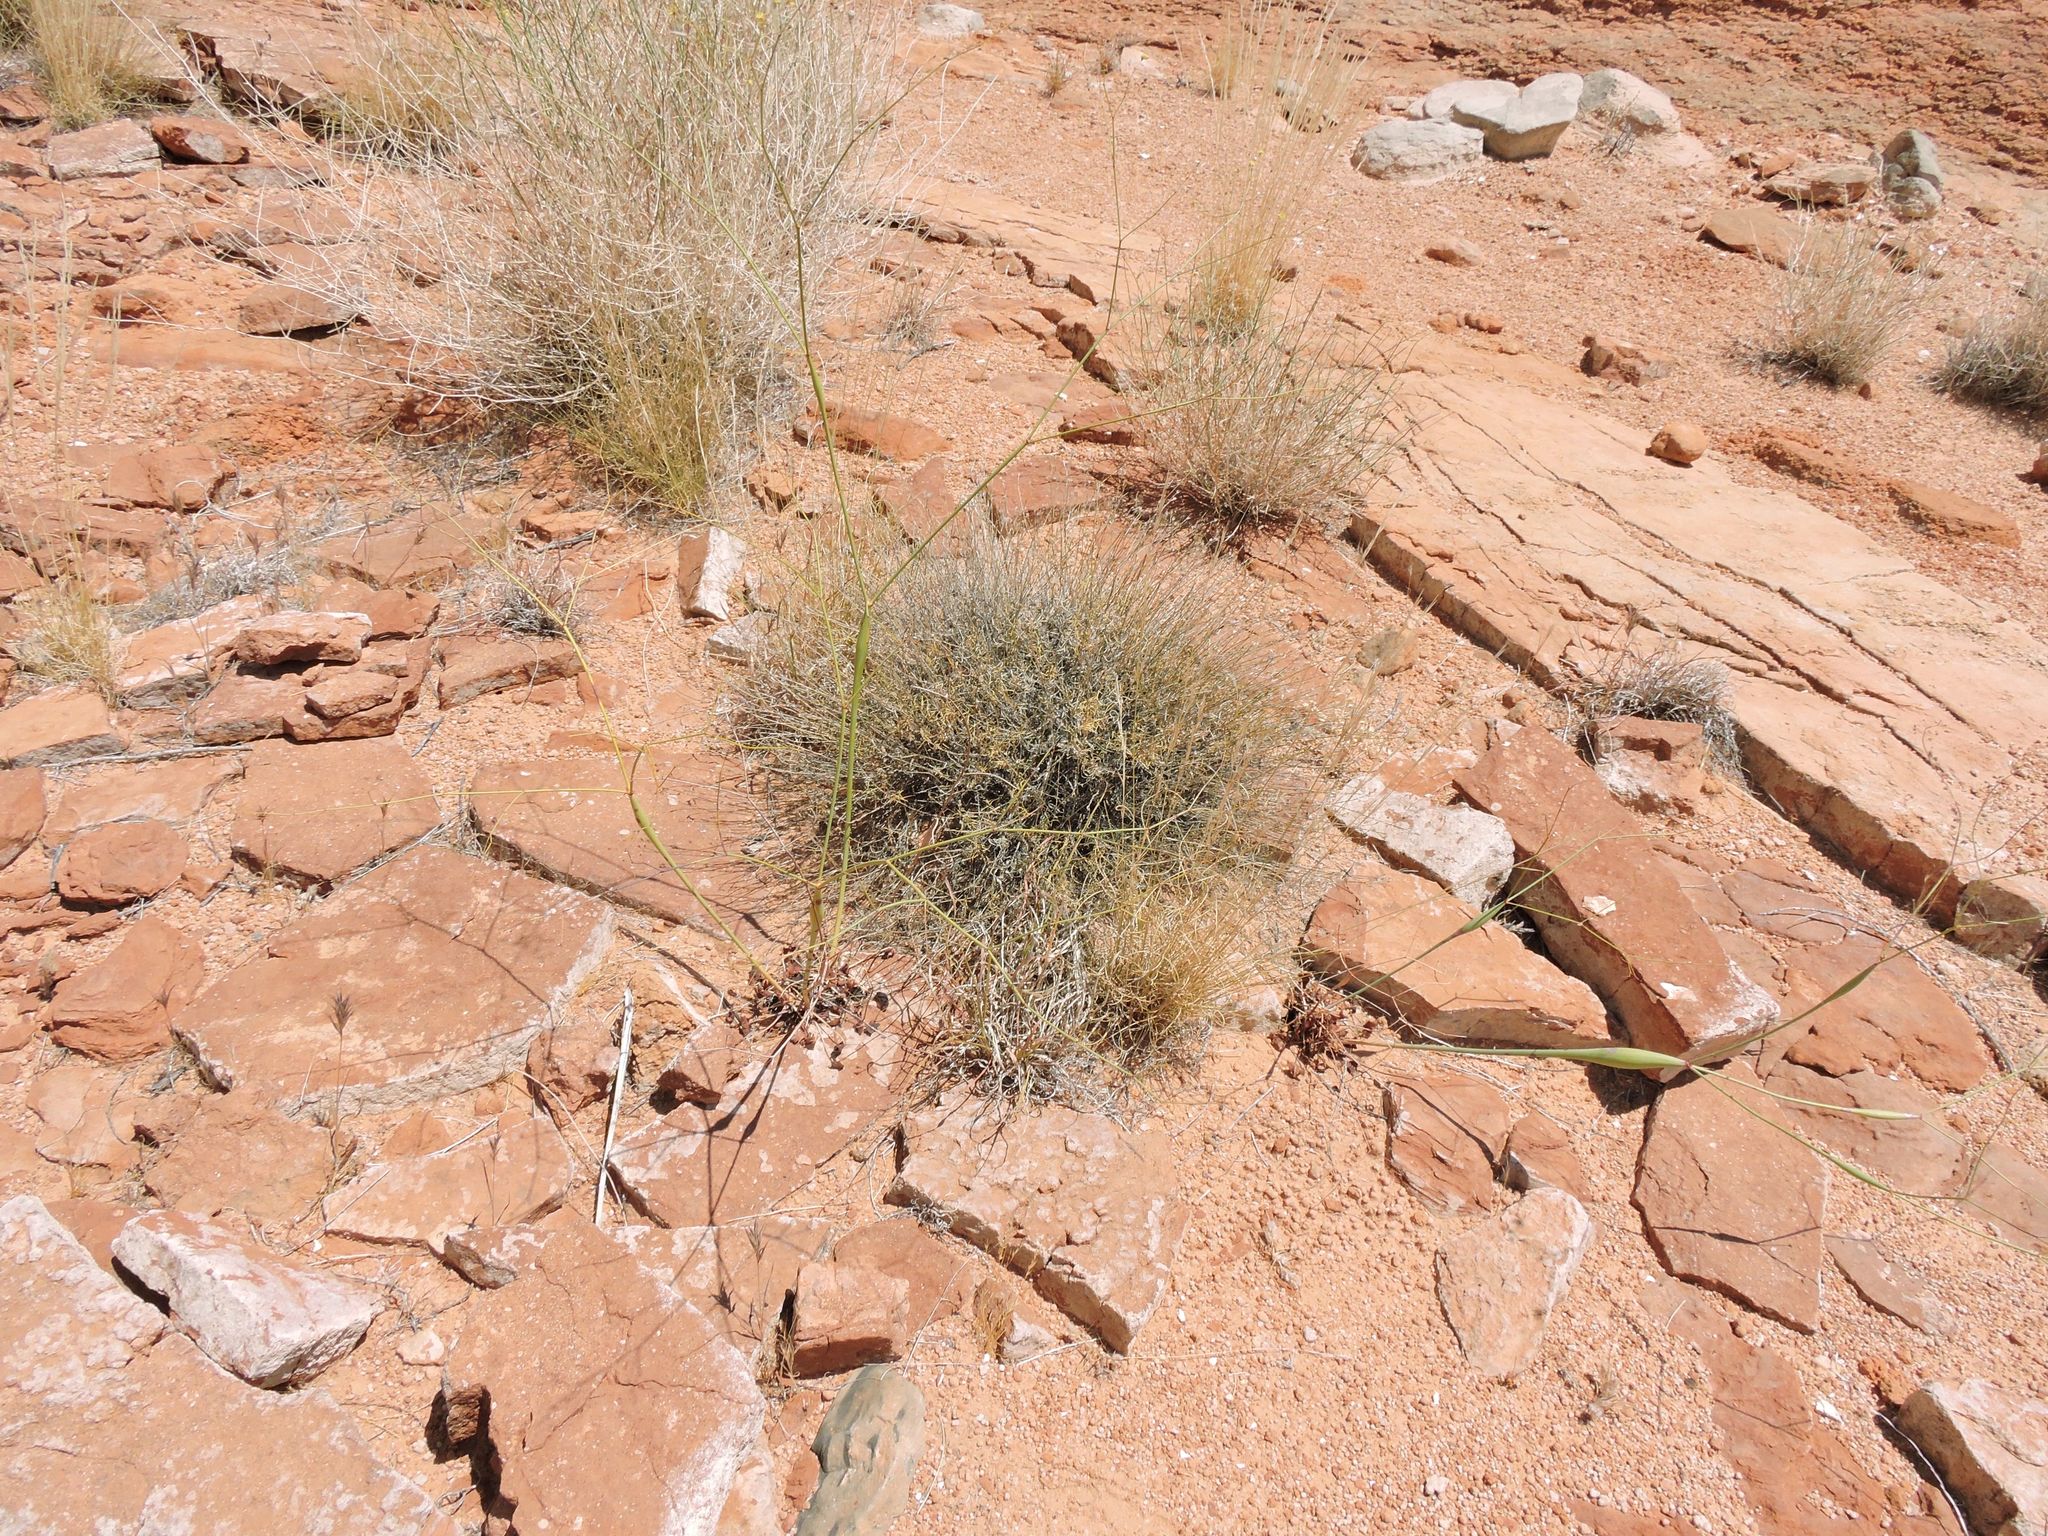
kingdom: Plantae
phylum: Tracheophyta
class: Magnoliopsida
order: Caryophyllales
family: Polygonaceae
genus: Eriogonum
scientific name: Eriogonum inflatum
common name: Desert trumpet
